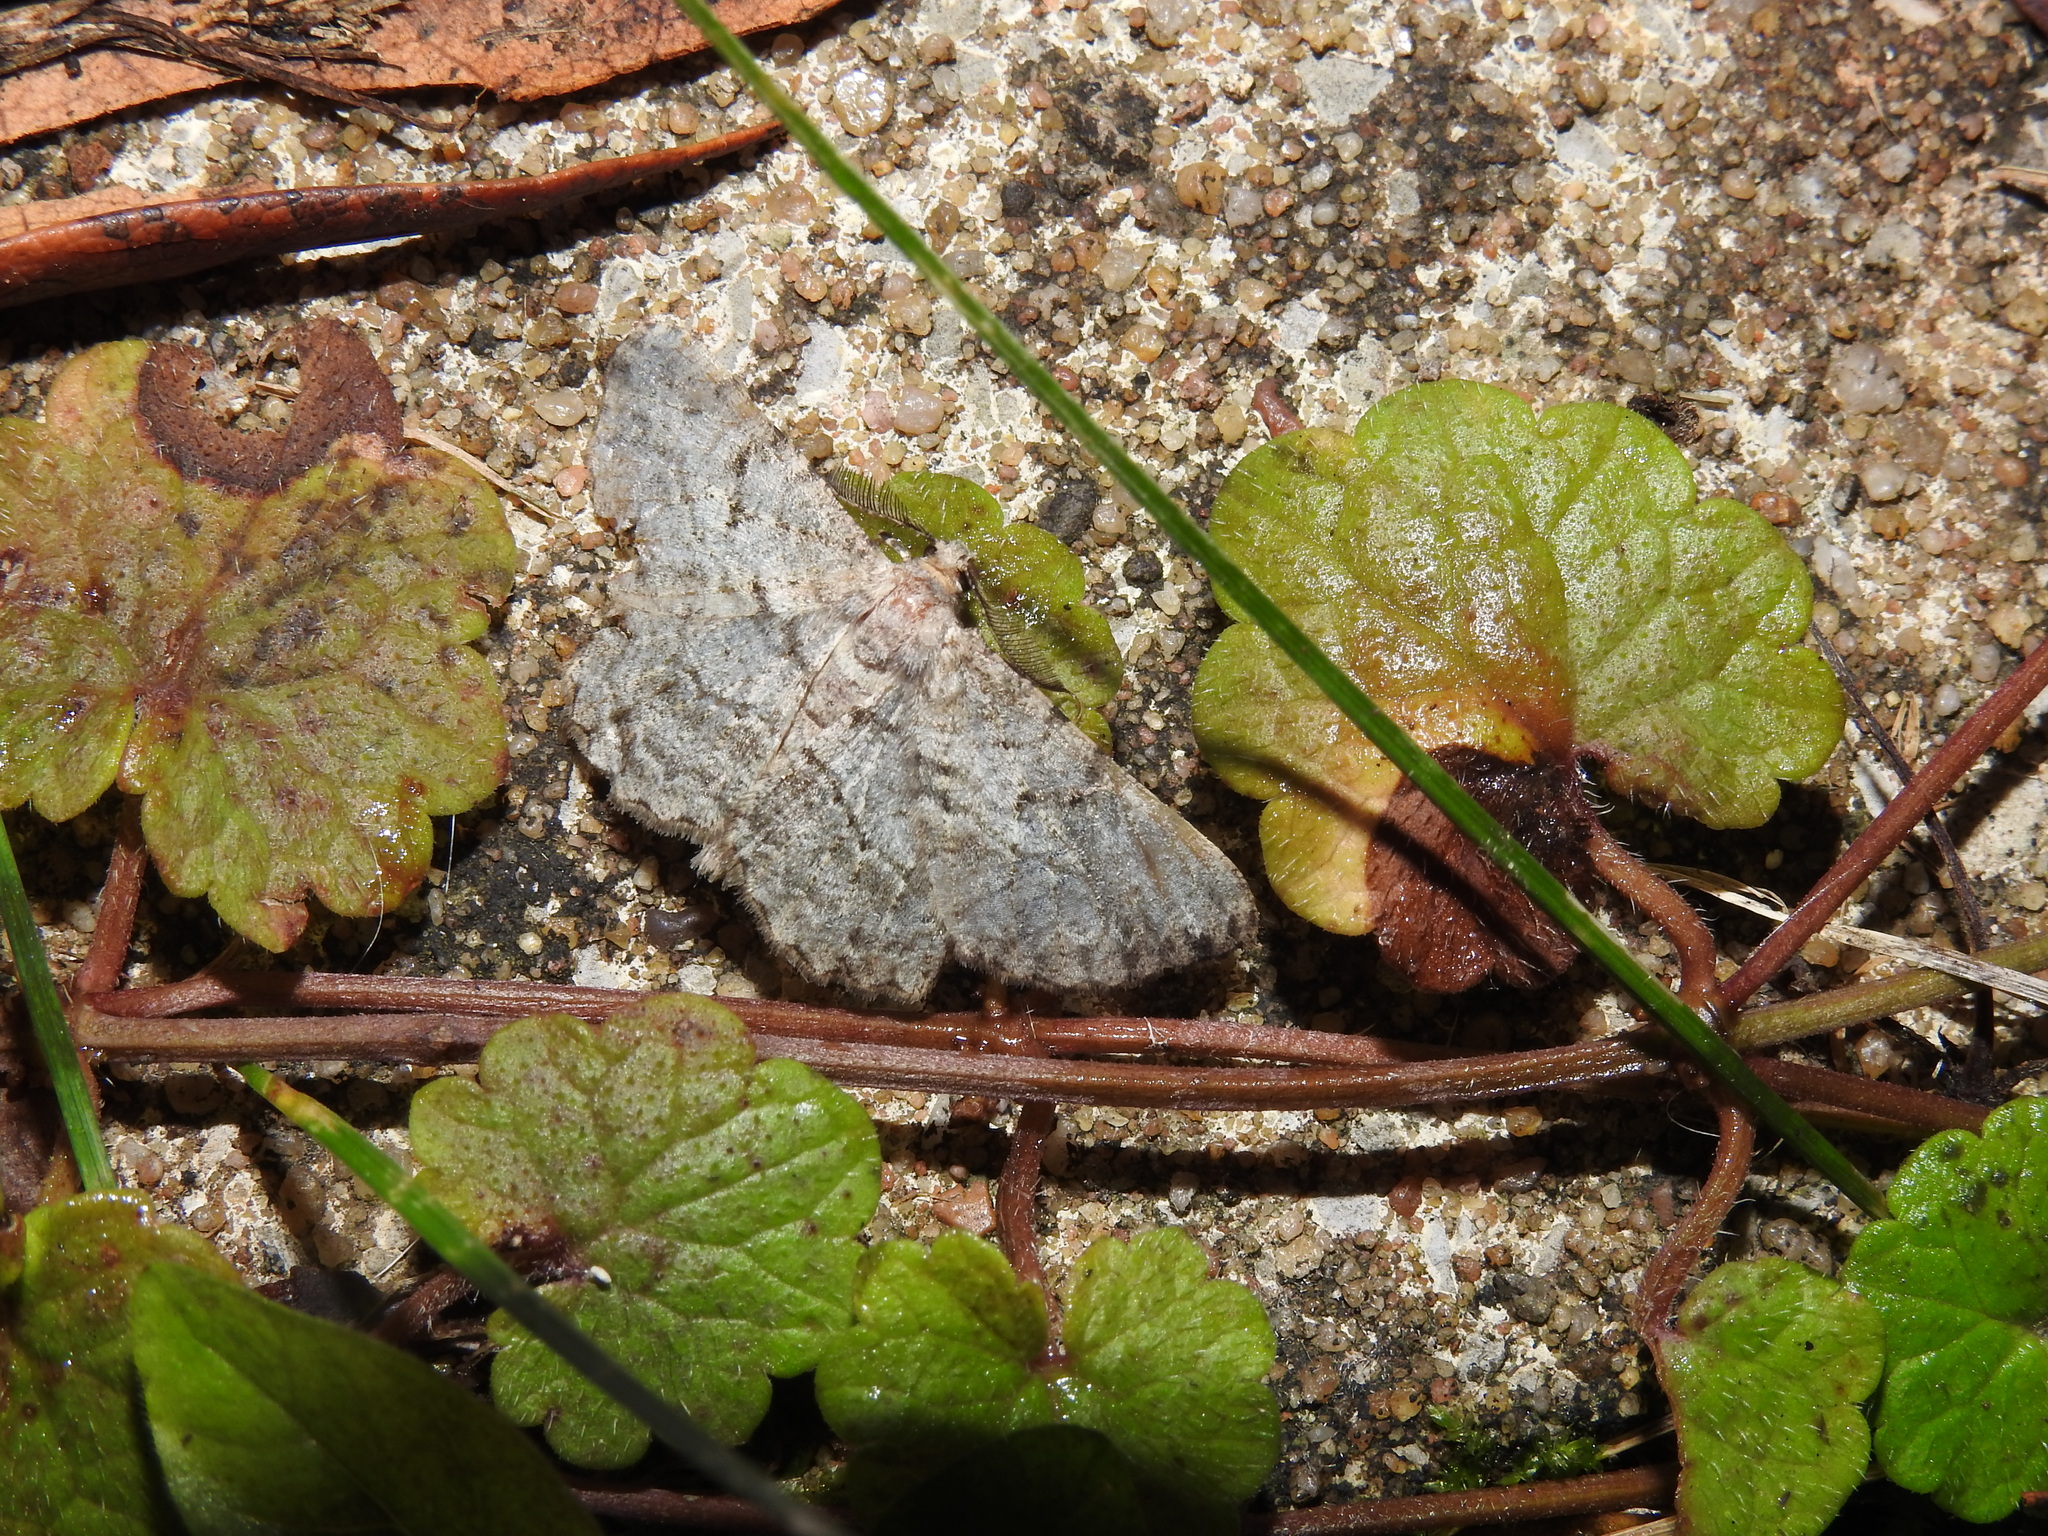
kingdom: Animalia
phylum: Arthropoda
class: Insecta
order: Lepidoptera
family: Geometridae
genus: Peribatodes
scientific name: Peribatodes rhomboidaria
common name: Willow beauty
